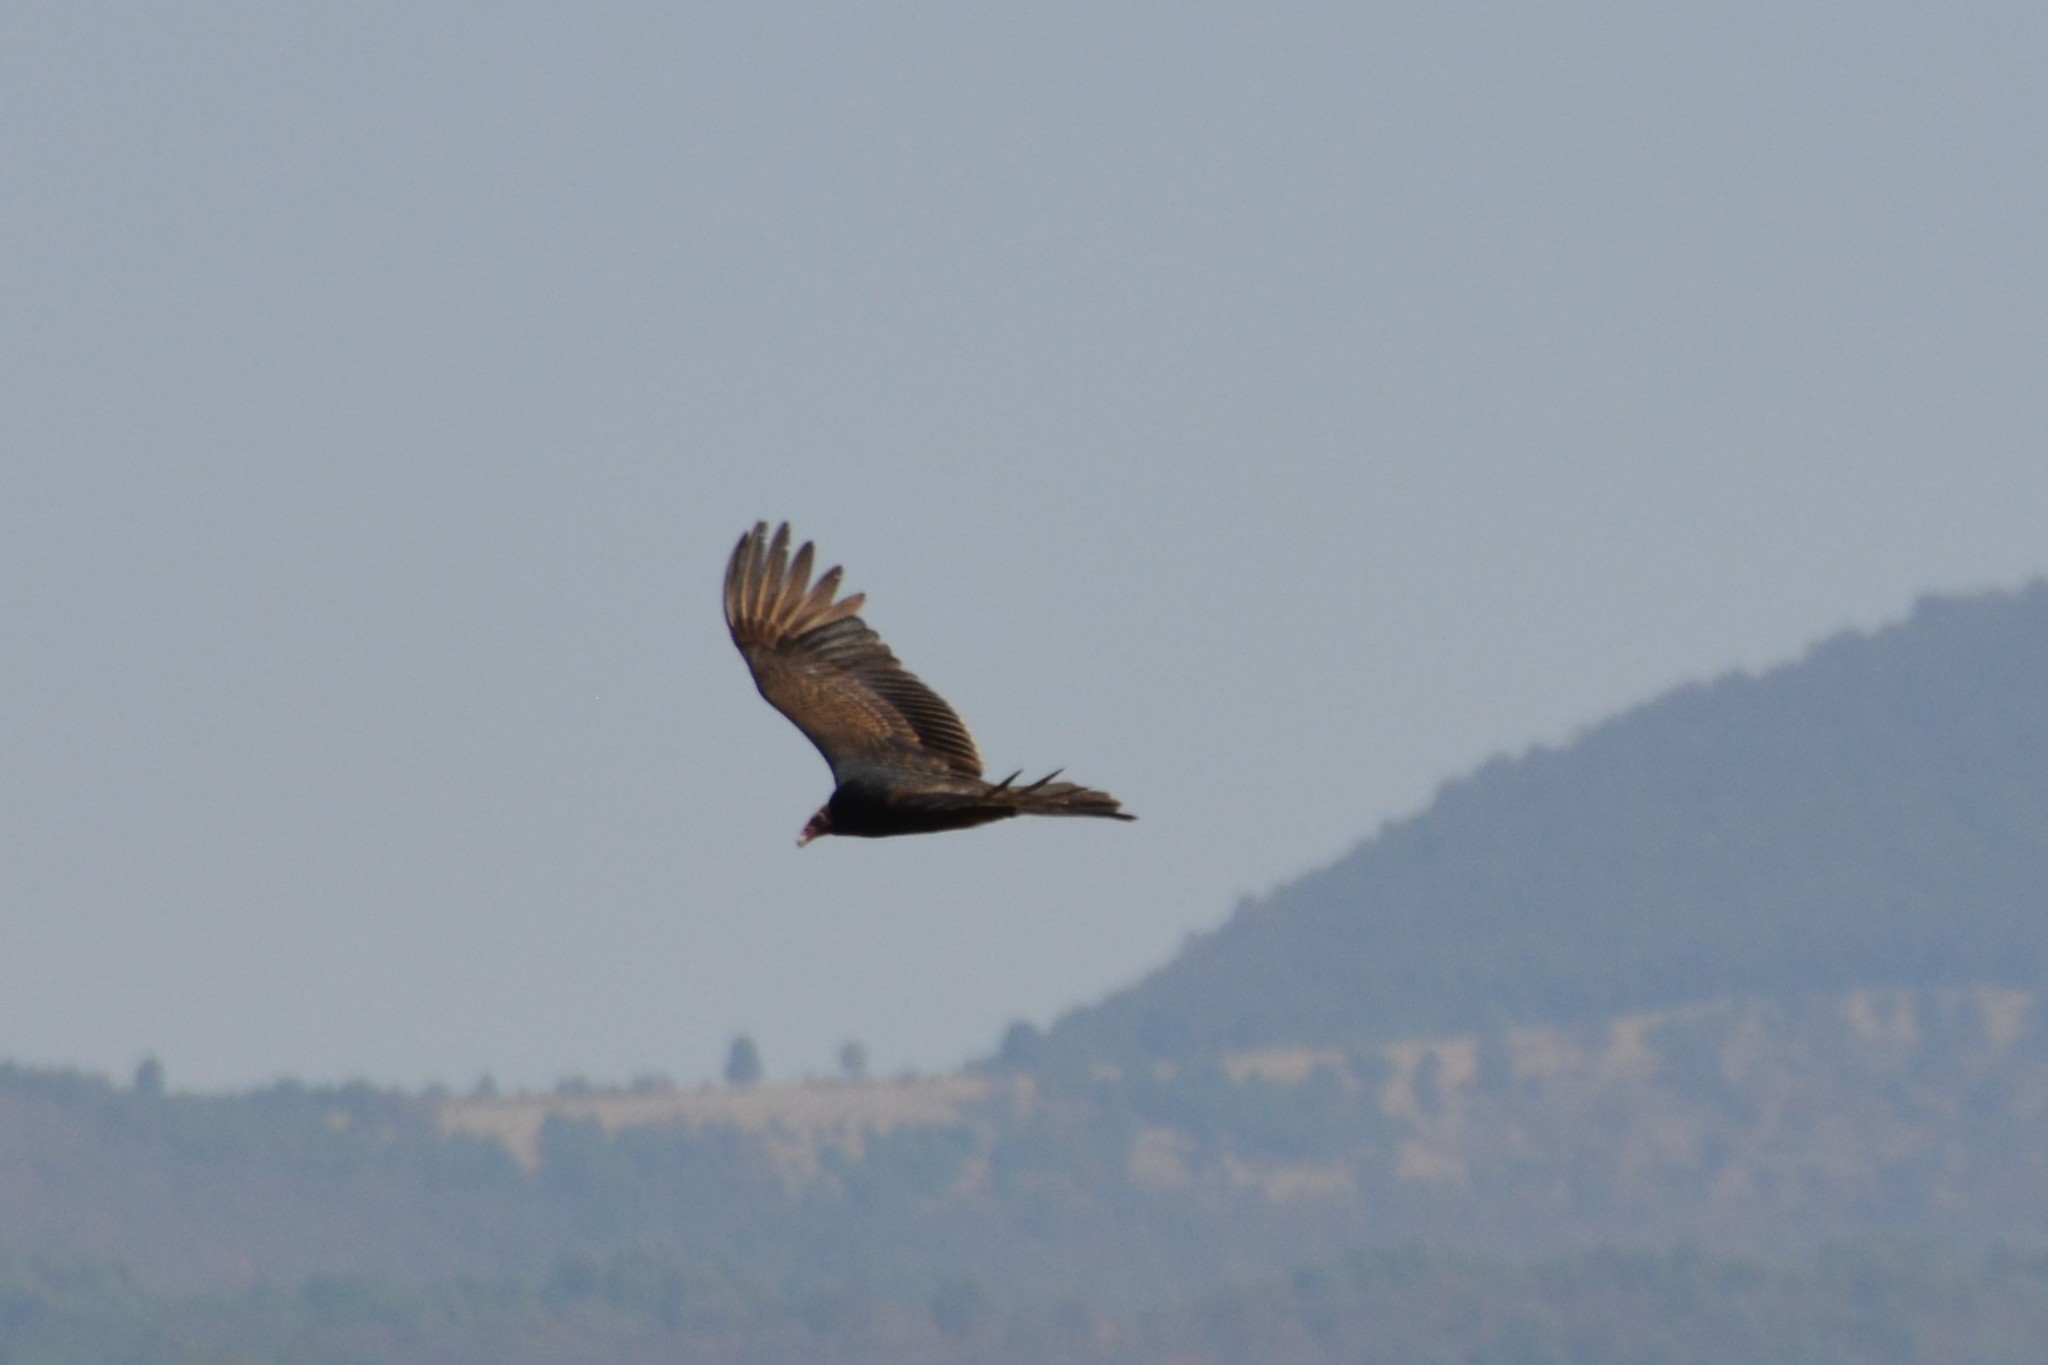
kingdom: Animalia
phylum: Chordata
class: Aves
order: Accipitriformes
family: Cathartidae
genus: Cathartes
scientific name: Cathartes aura
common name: Turkey vulture
